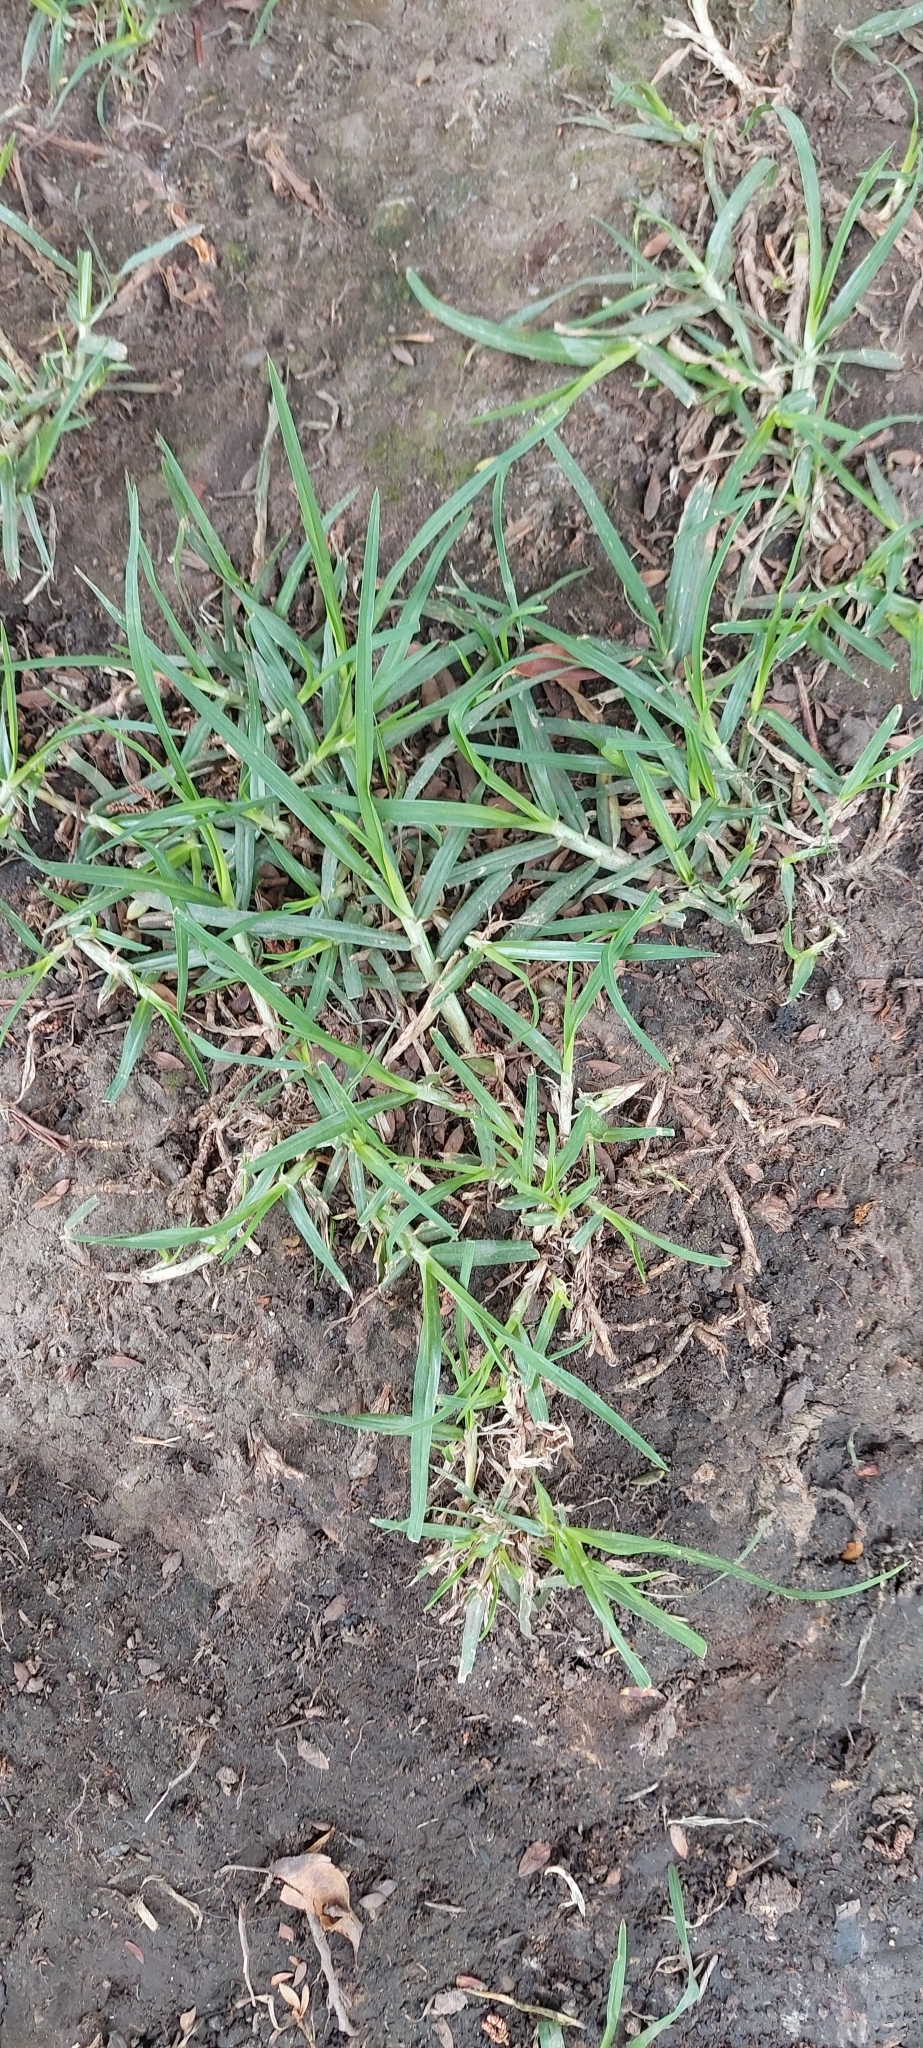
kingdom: Plantae
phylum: Tracheophyta
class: Liliopsida
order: Poales
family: Poaceae
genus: Cenchrus
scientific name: Cenchrus clandestinus
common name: Kikuyugrass
